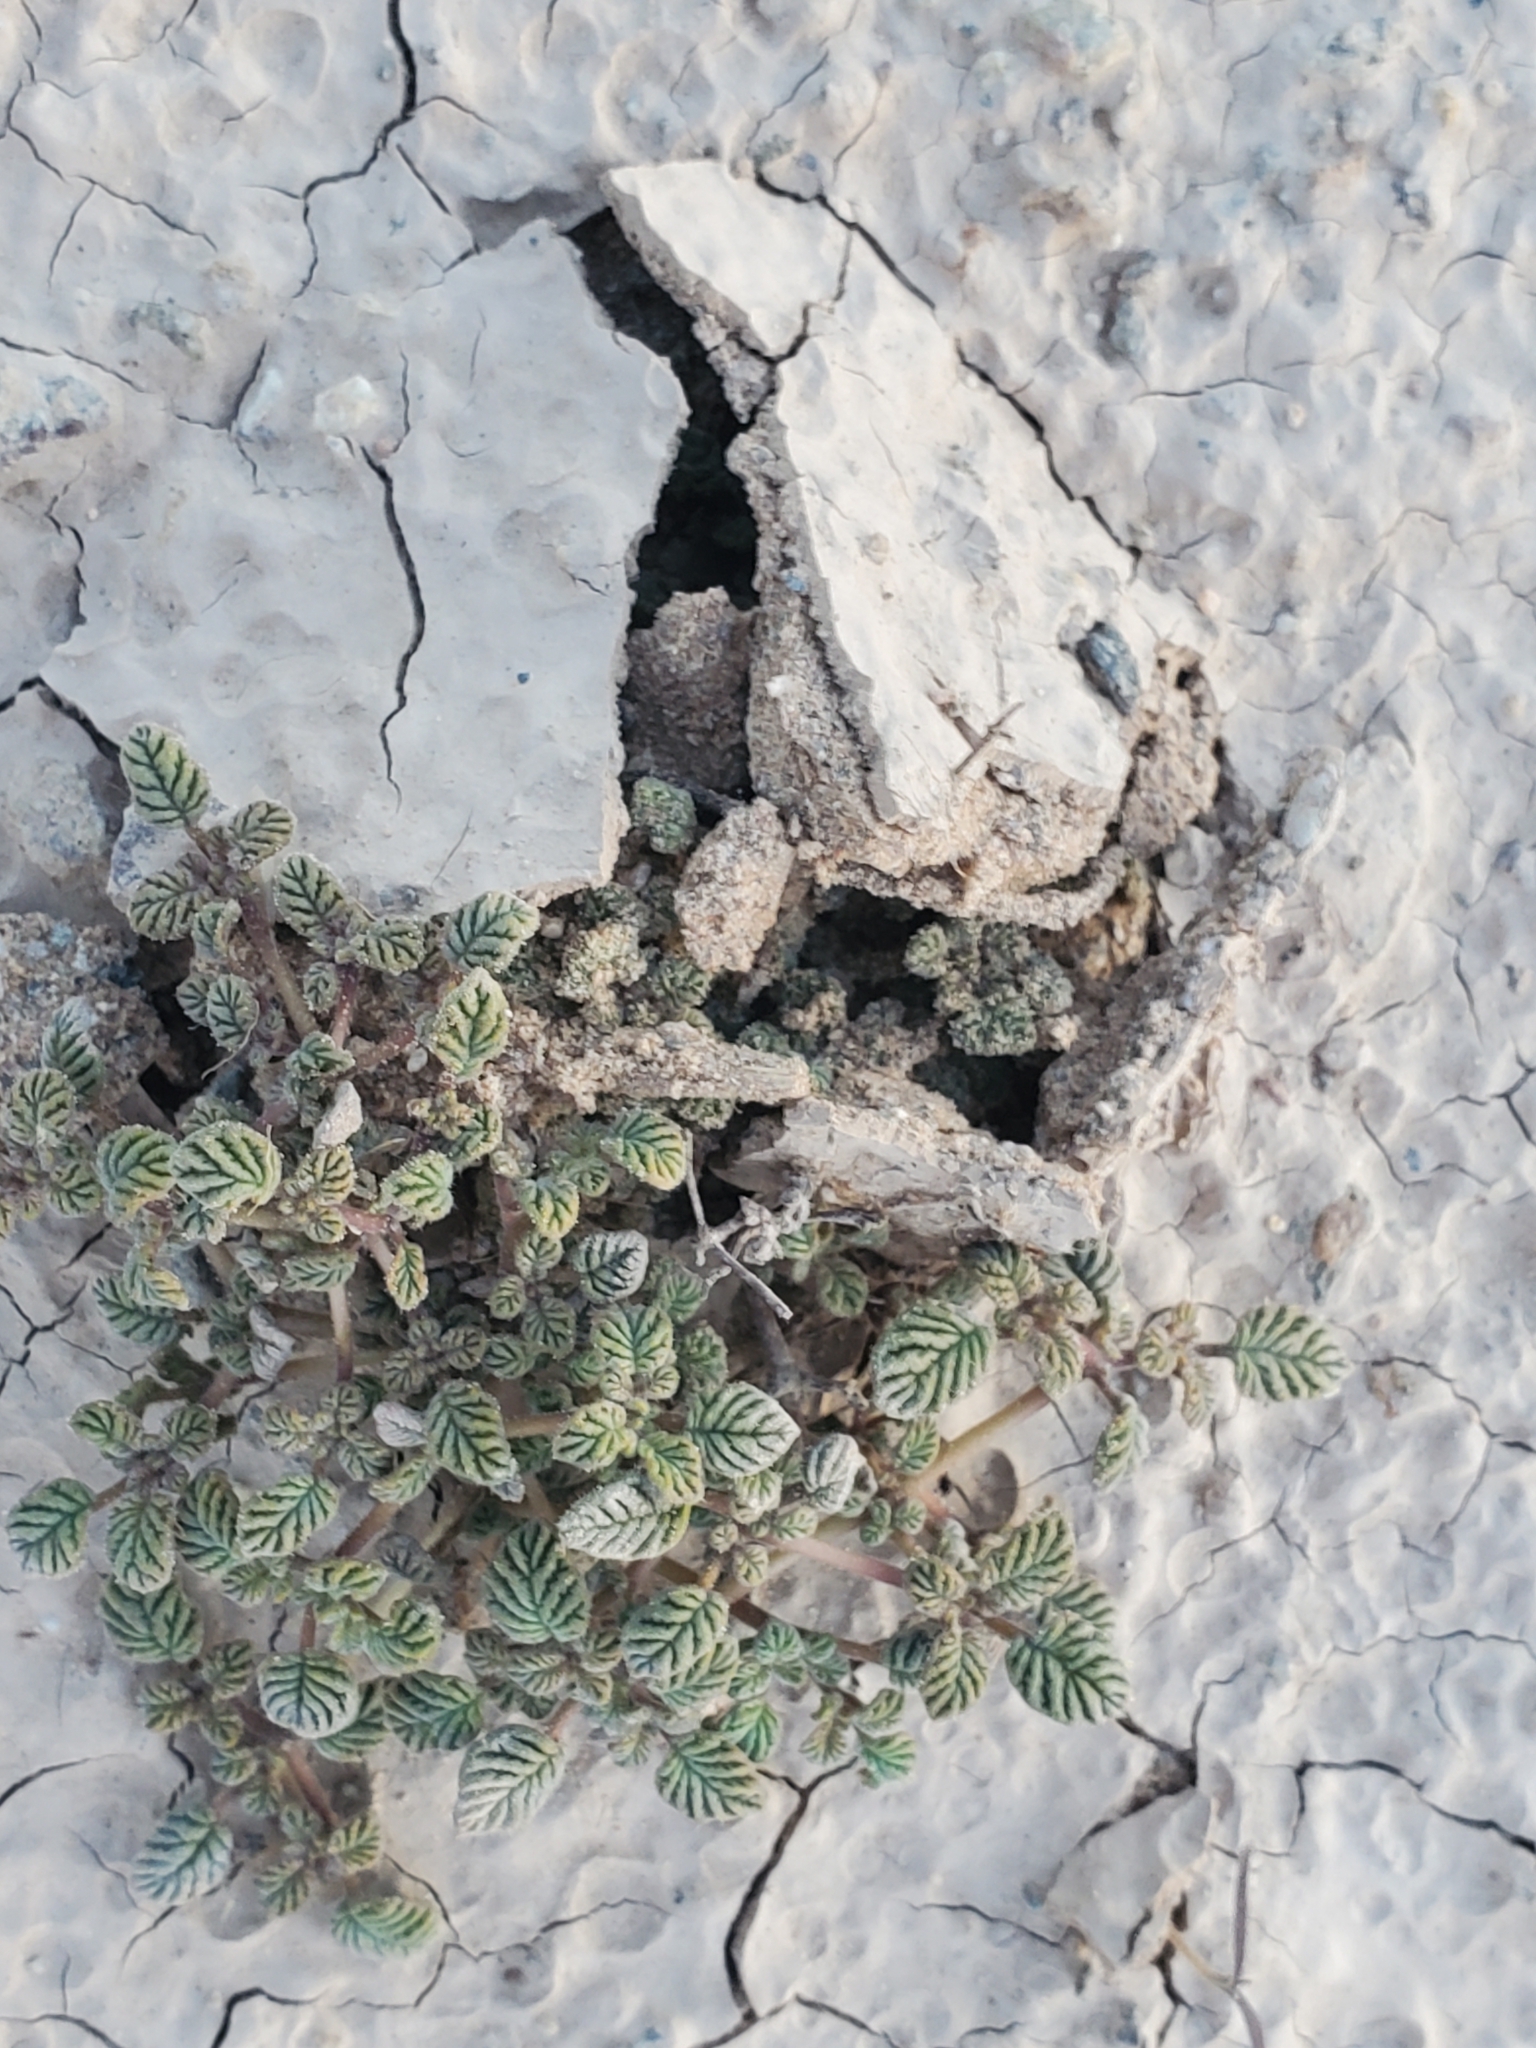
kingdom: Plantae
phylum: Tracheophyta
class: Magnoliopsida
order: Boraginales
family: Ehretiaceae
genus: Tiquilia
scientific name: Tiquilia plicata
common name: Fan-leaf tiquilia
